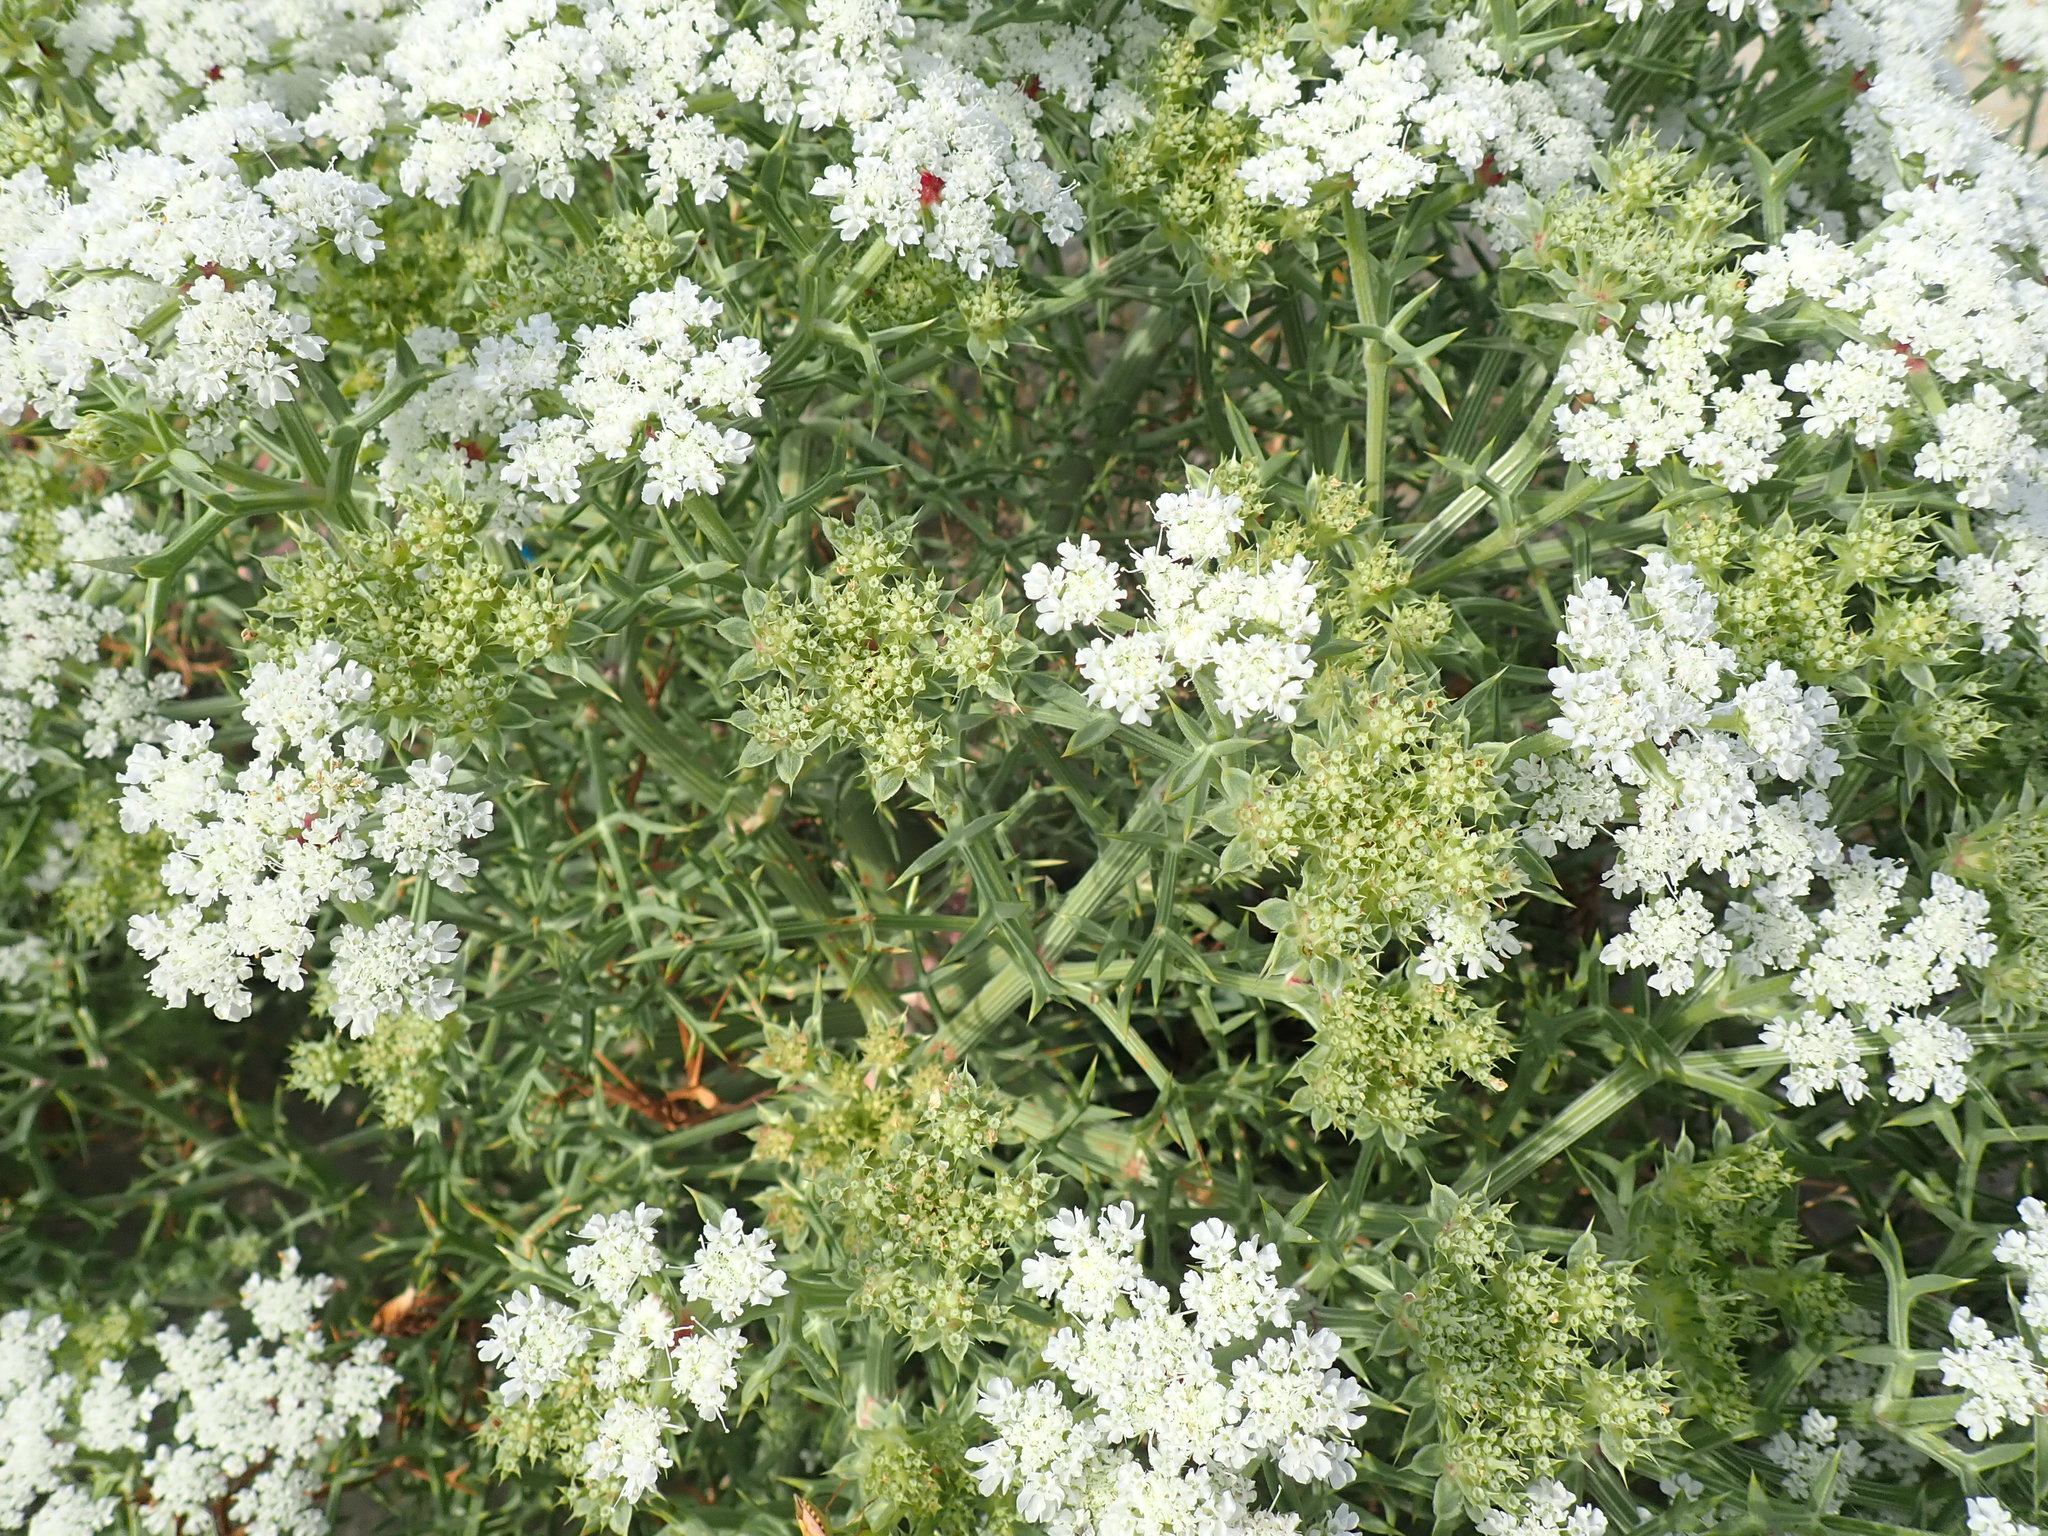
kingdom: Plantae
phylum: Tracheophyta
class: Magnoliopsida
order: Apiales
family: Apiaceae
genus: Echinophora
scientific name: Echinophora spinosa
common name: Prickly samphire
